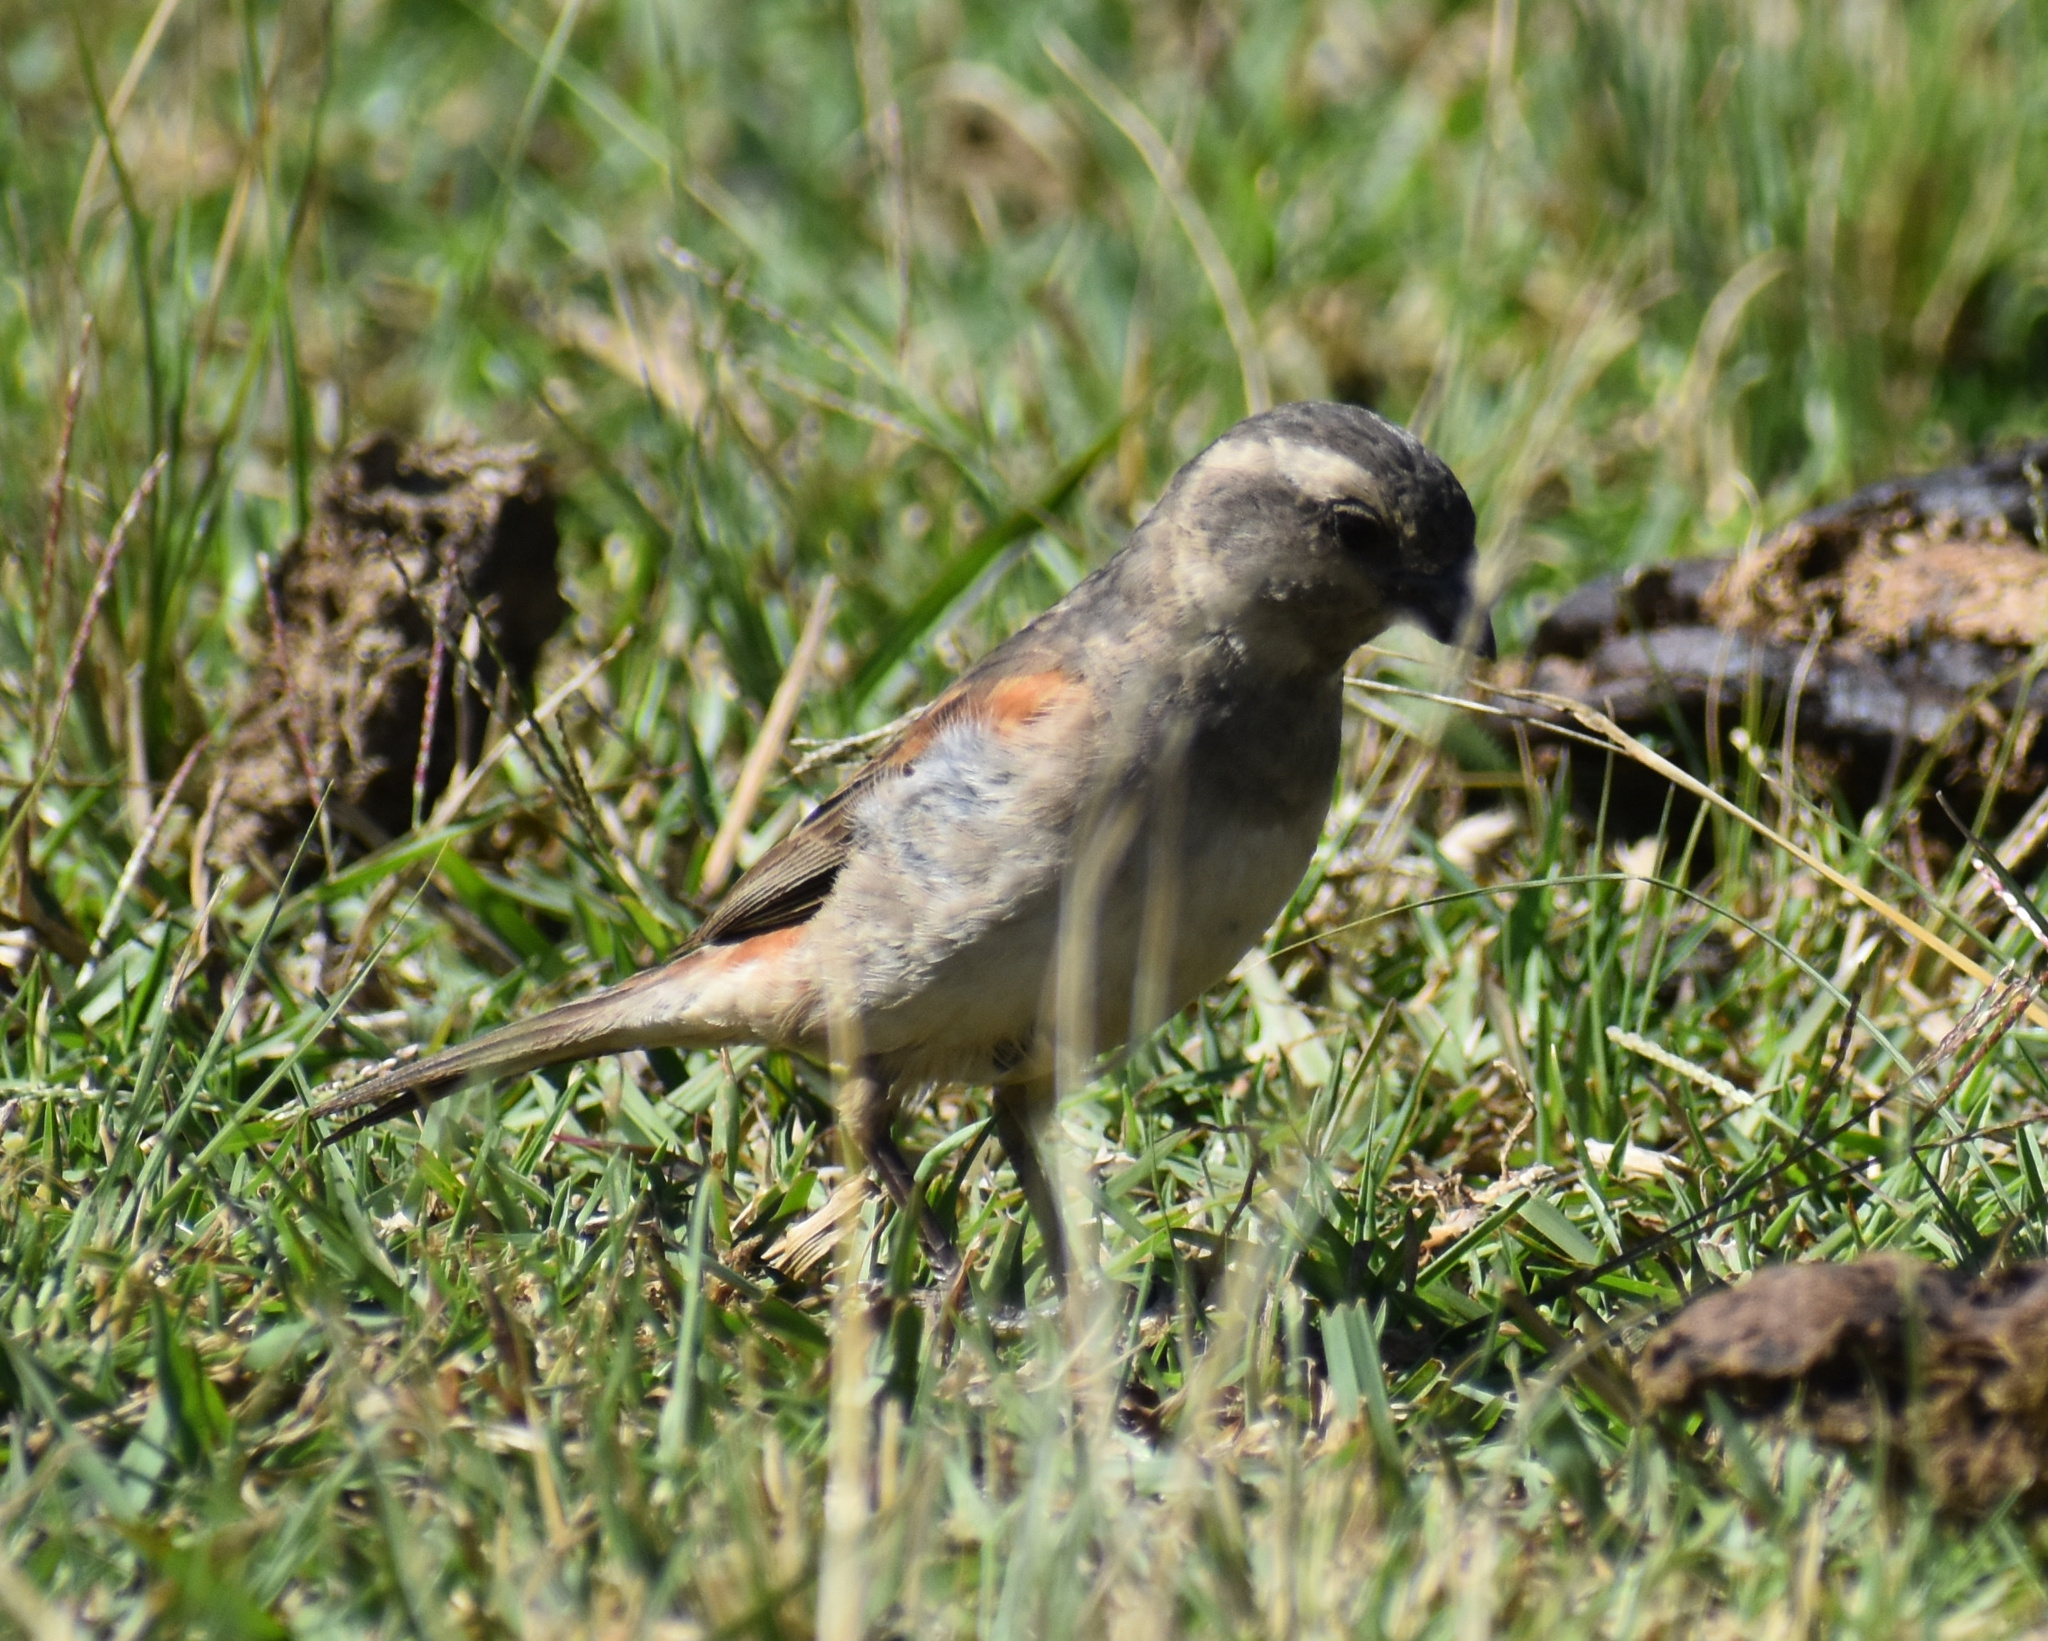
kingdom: Animalia
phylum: Chordata
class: Aves
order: Passeriformes
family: Passeridae
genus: Passer
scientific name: Passer melanurus
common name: Cape sparrow
